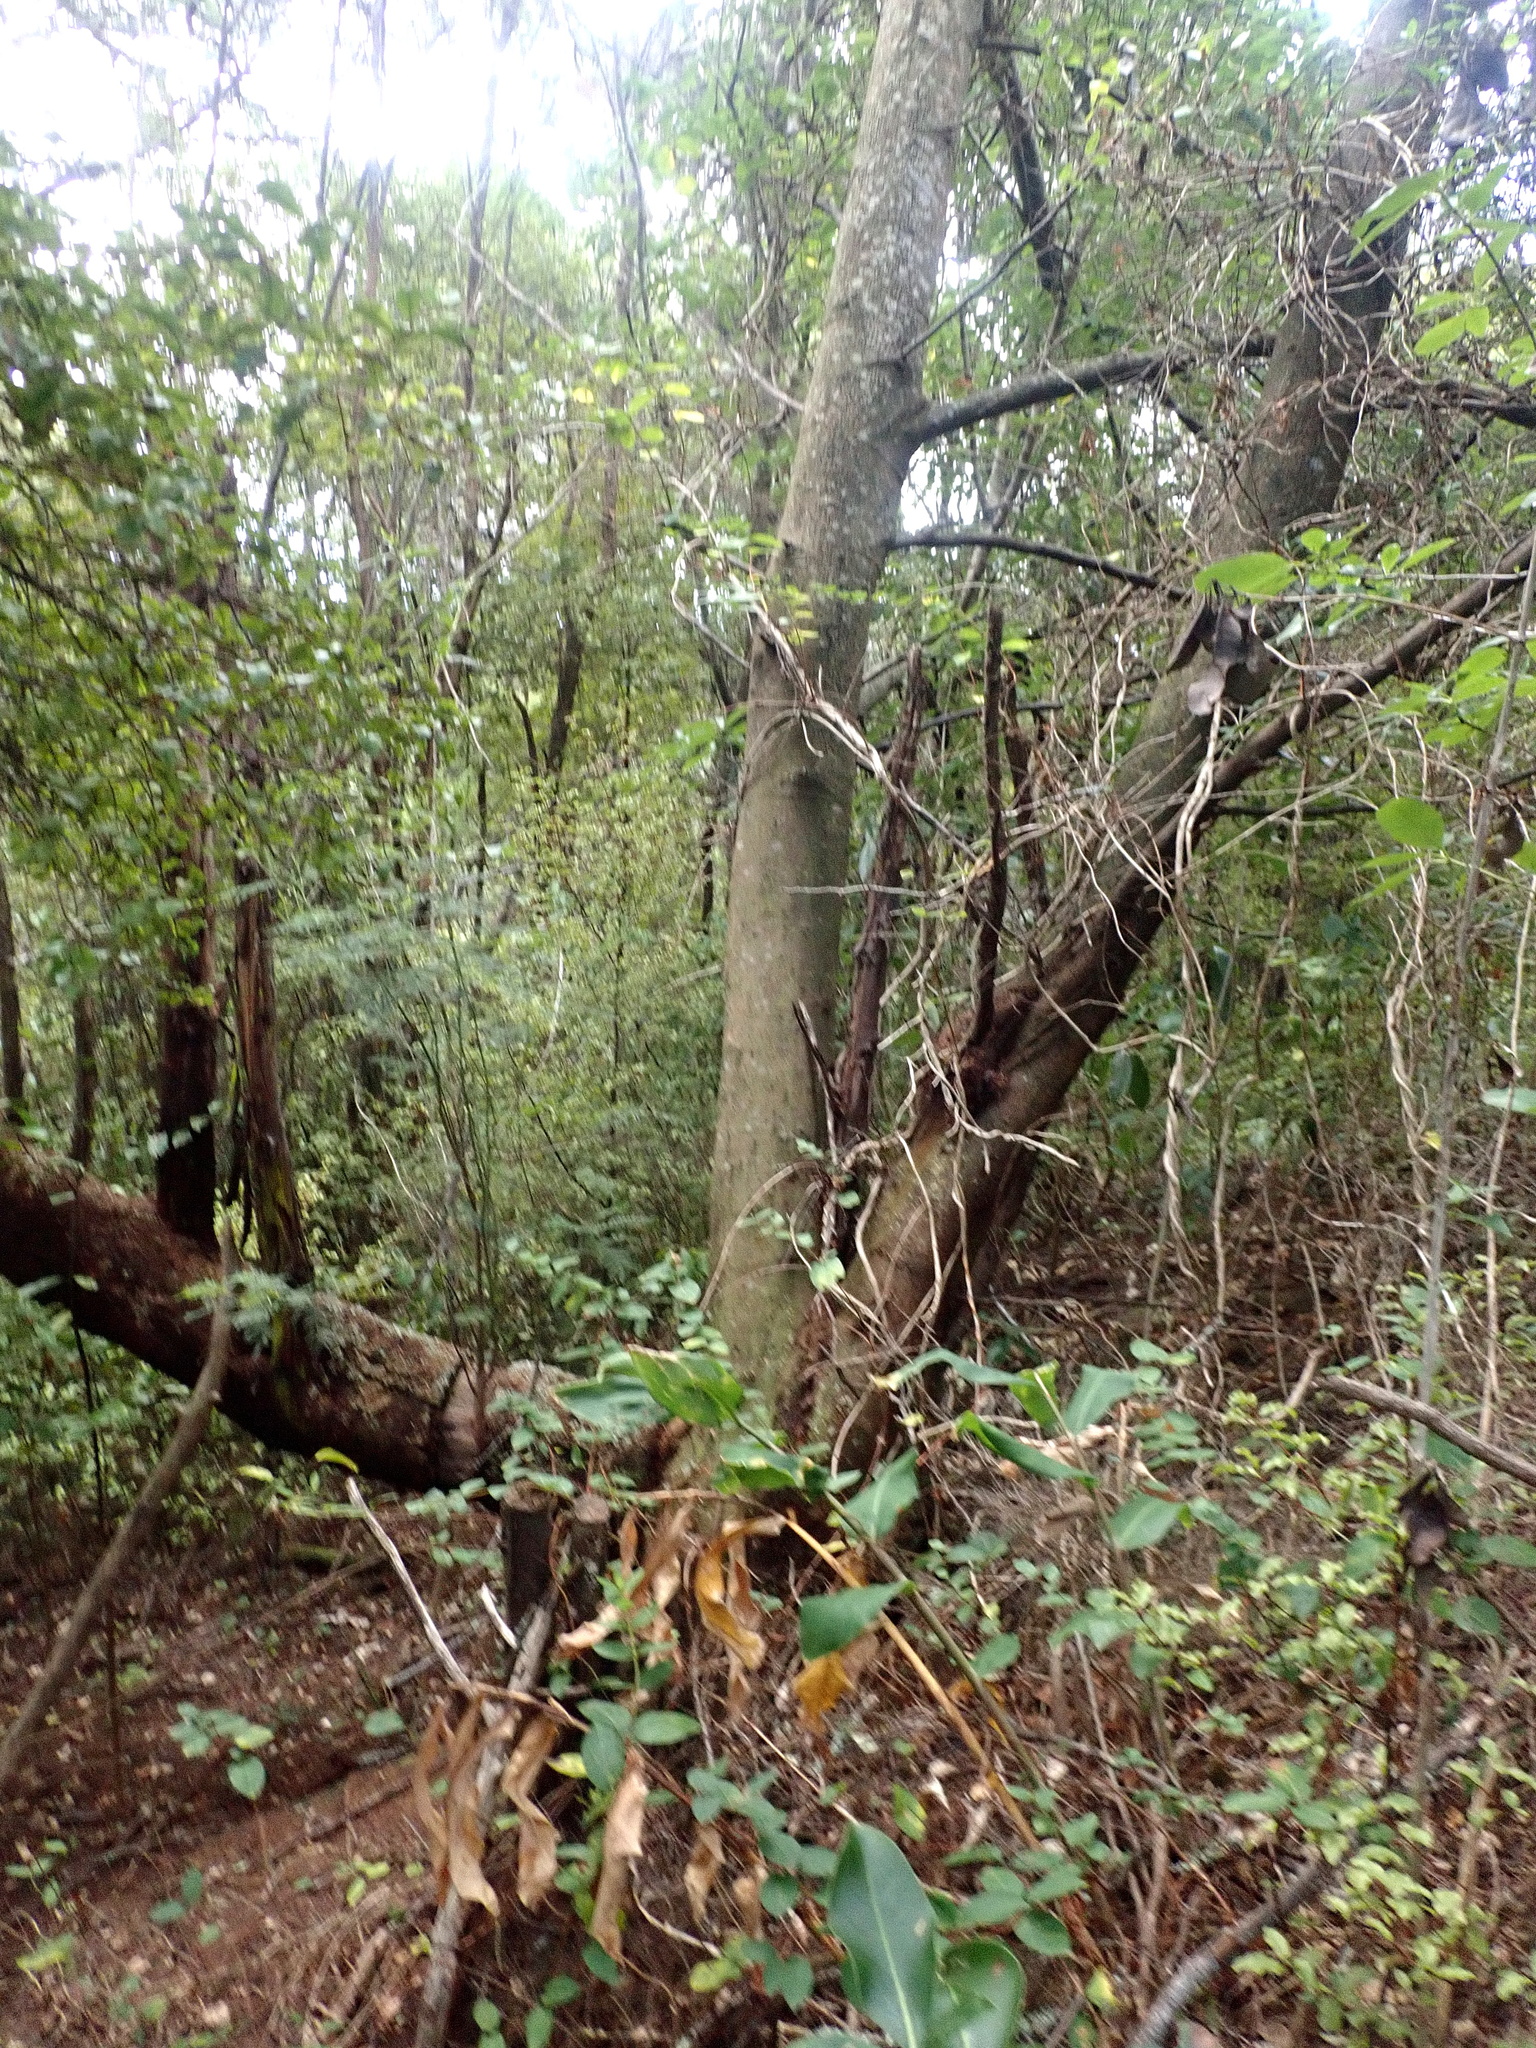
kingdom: Plantae
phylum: Tracheophyta
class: Magnoliopsida
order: Fabales
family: Fabaceae
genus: Paraserianthes
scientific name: Paraserianthes lophantha
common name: Plume albizia
